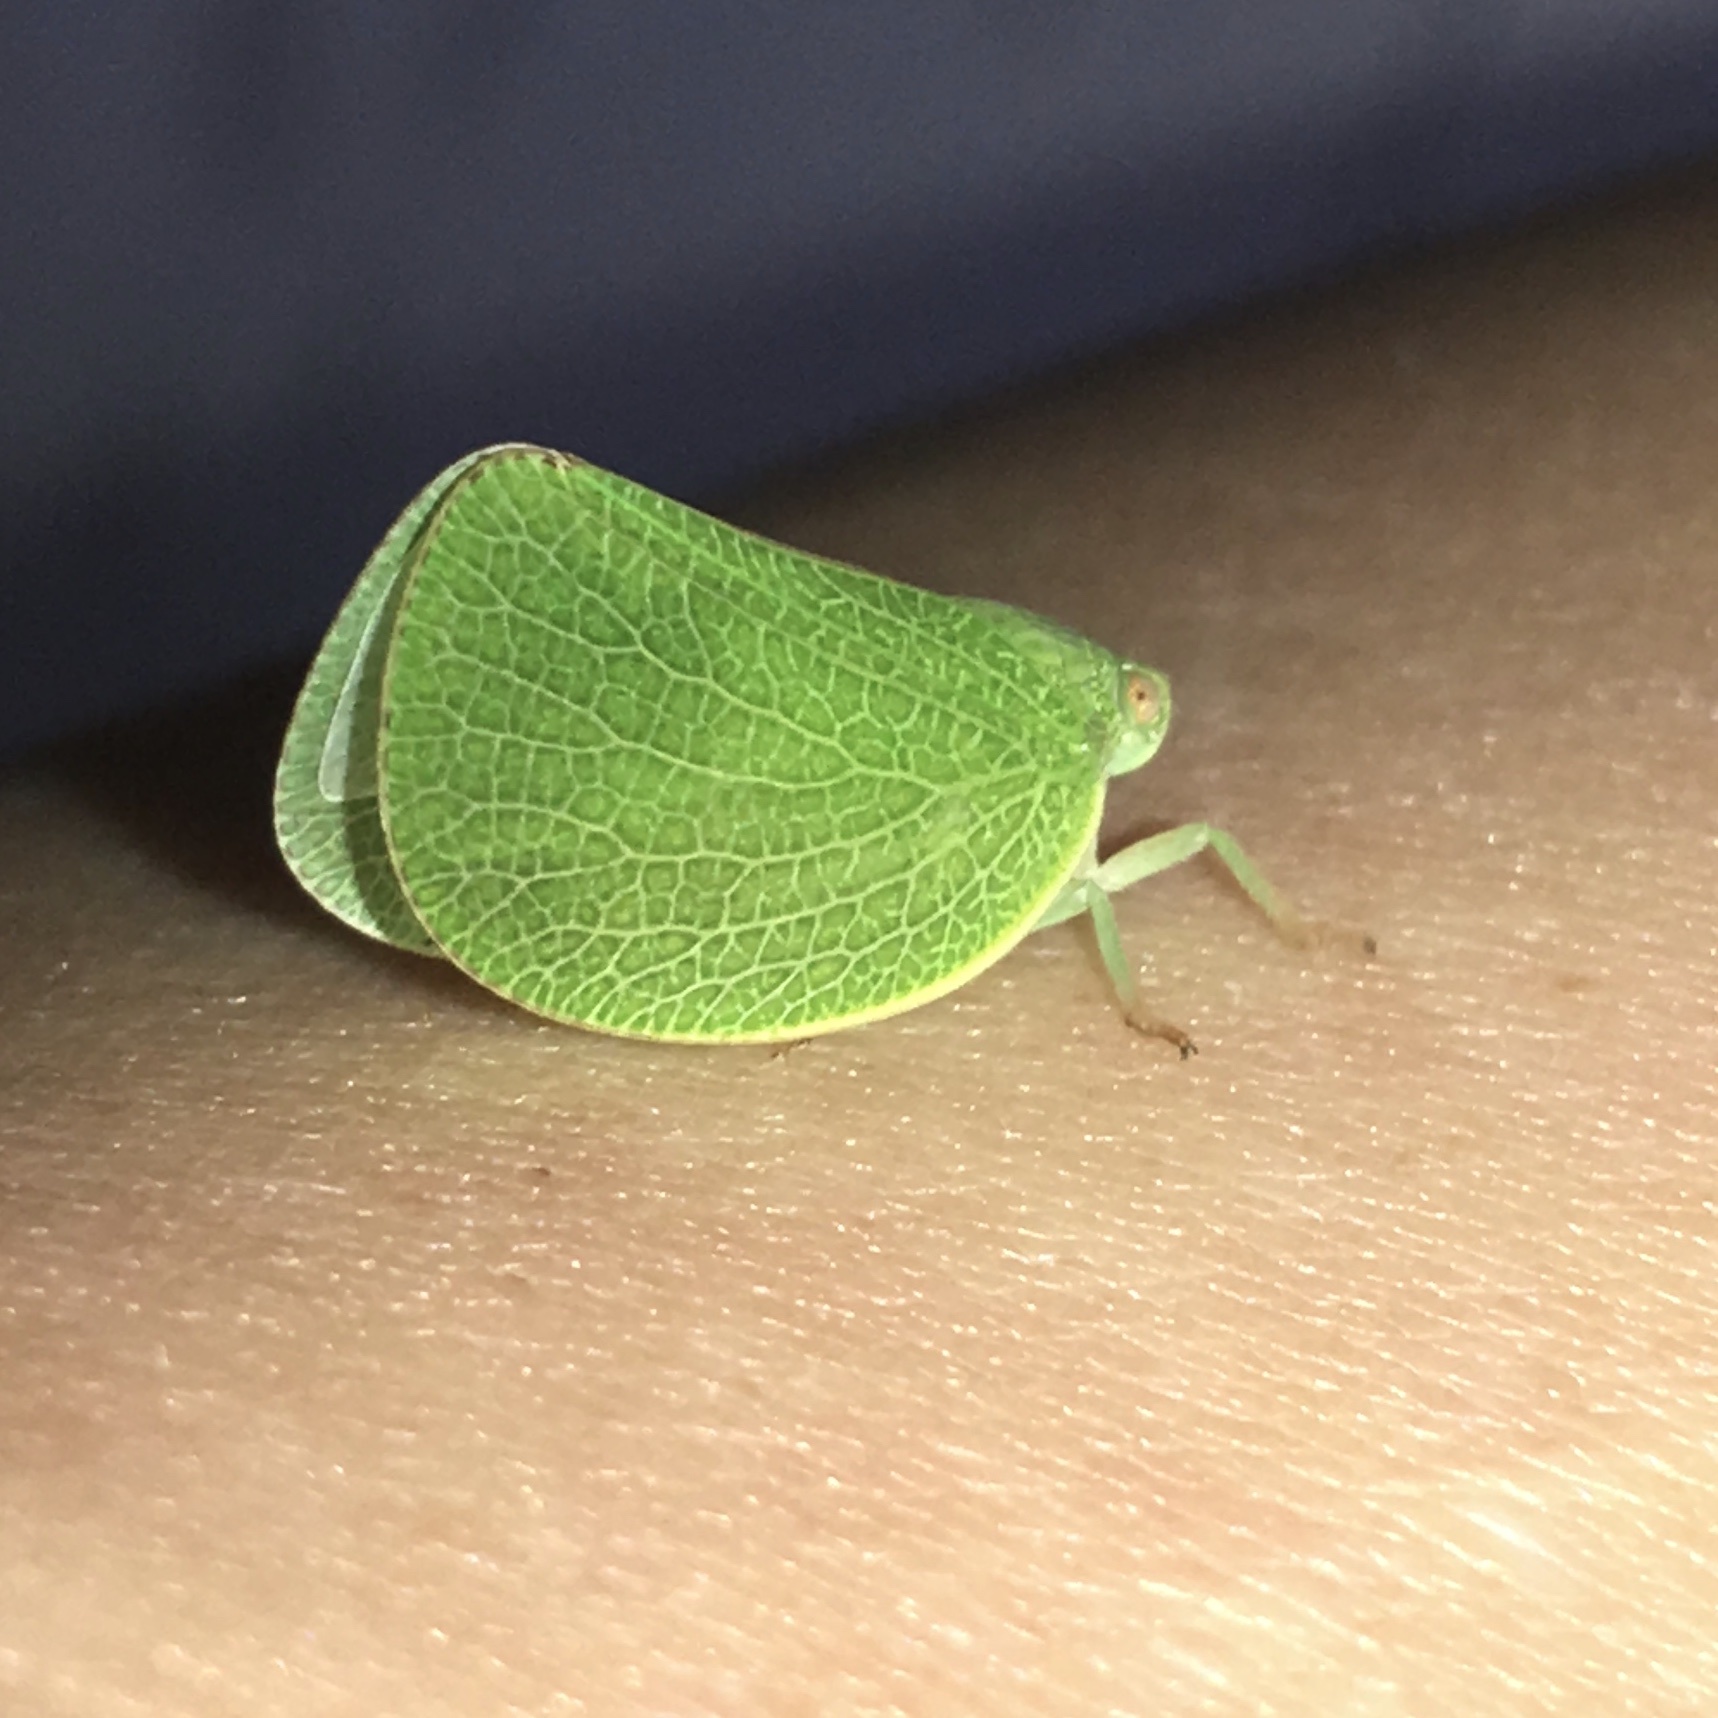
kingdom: Animalia
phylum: Arthropoda
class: Insecta
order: Hemiptera
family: Acanaloniidae
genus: Acanalonia
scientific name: Acanalonia conica
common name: Green cone-headed planthopper
